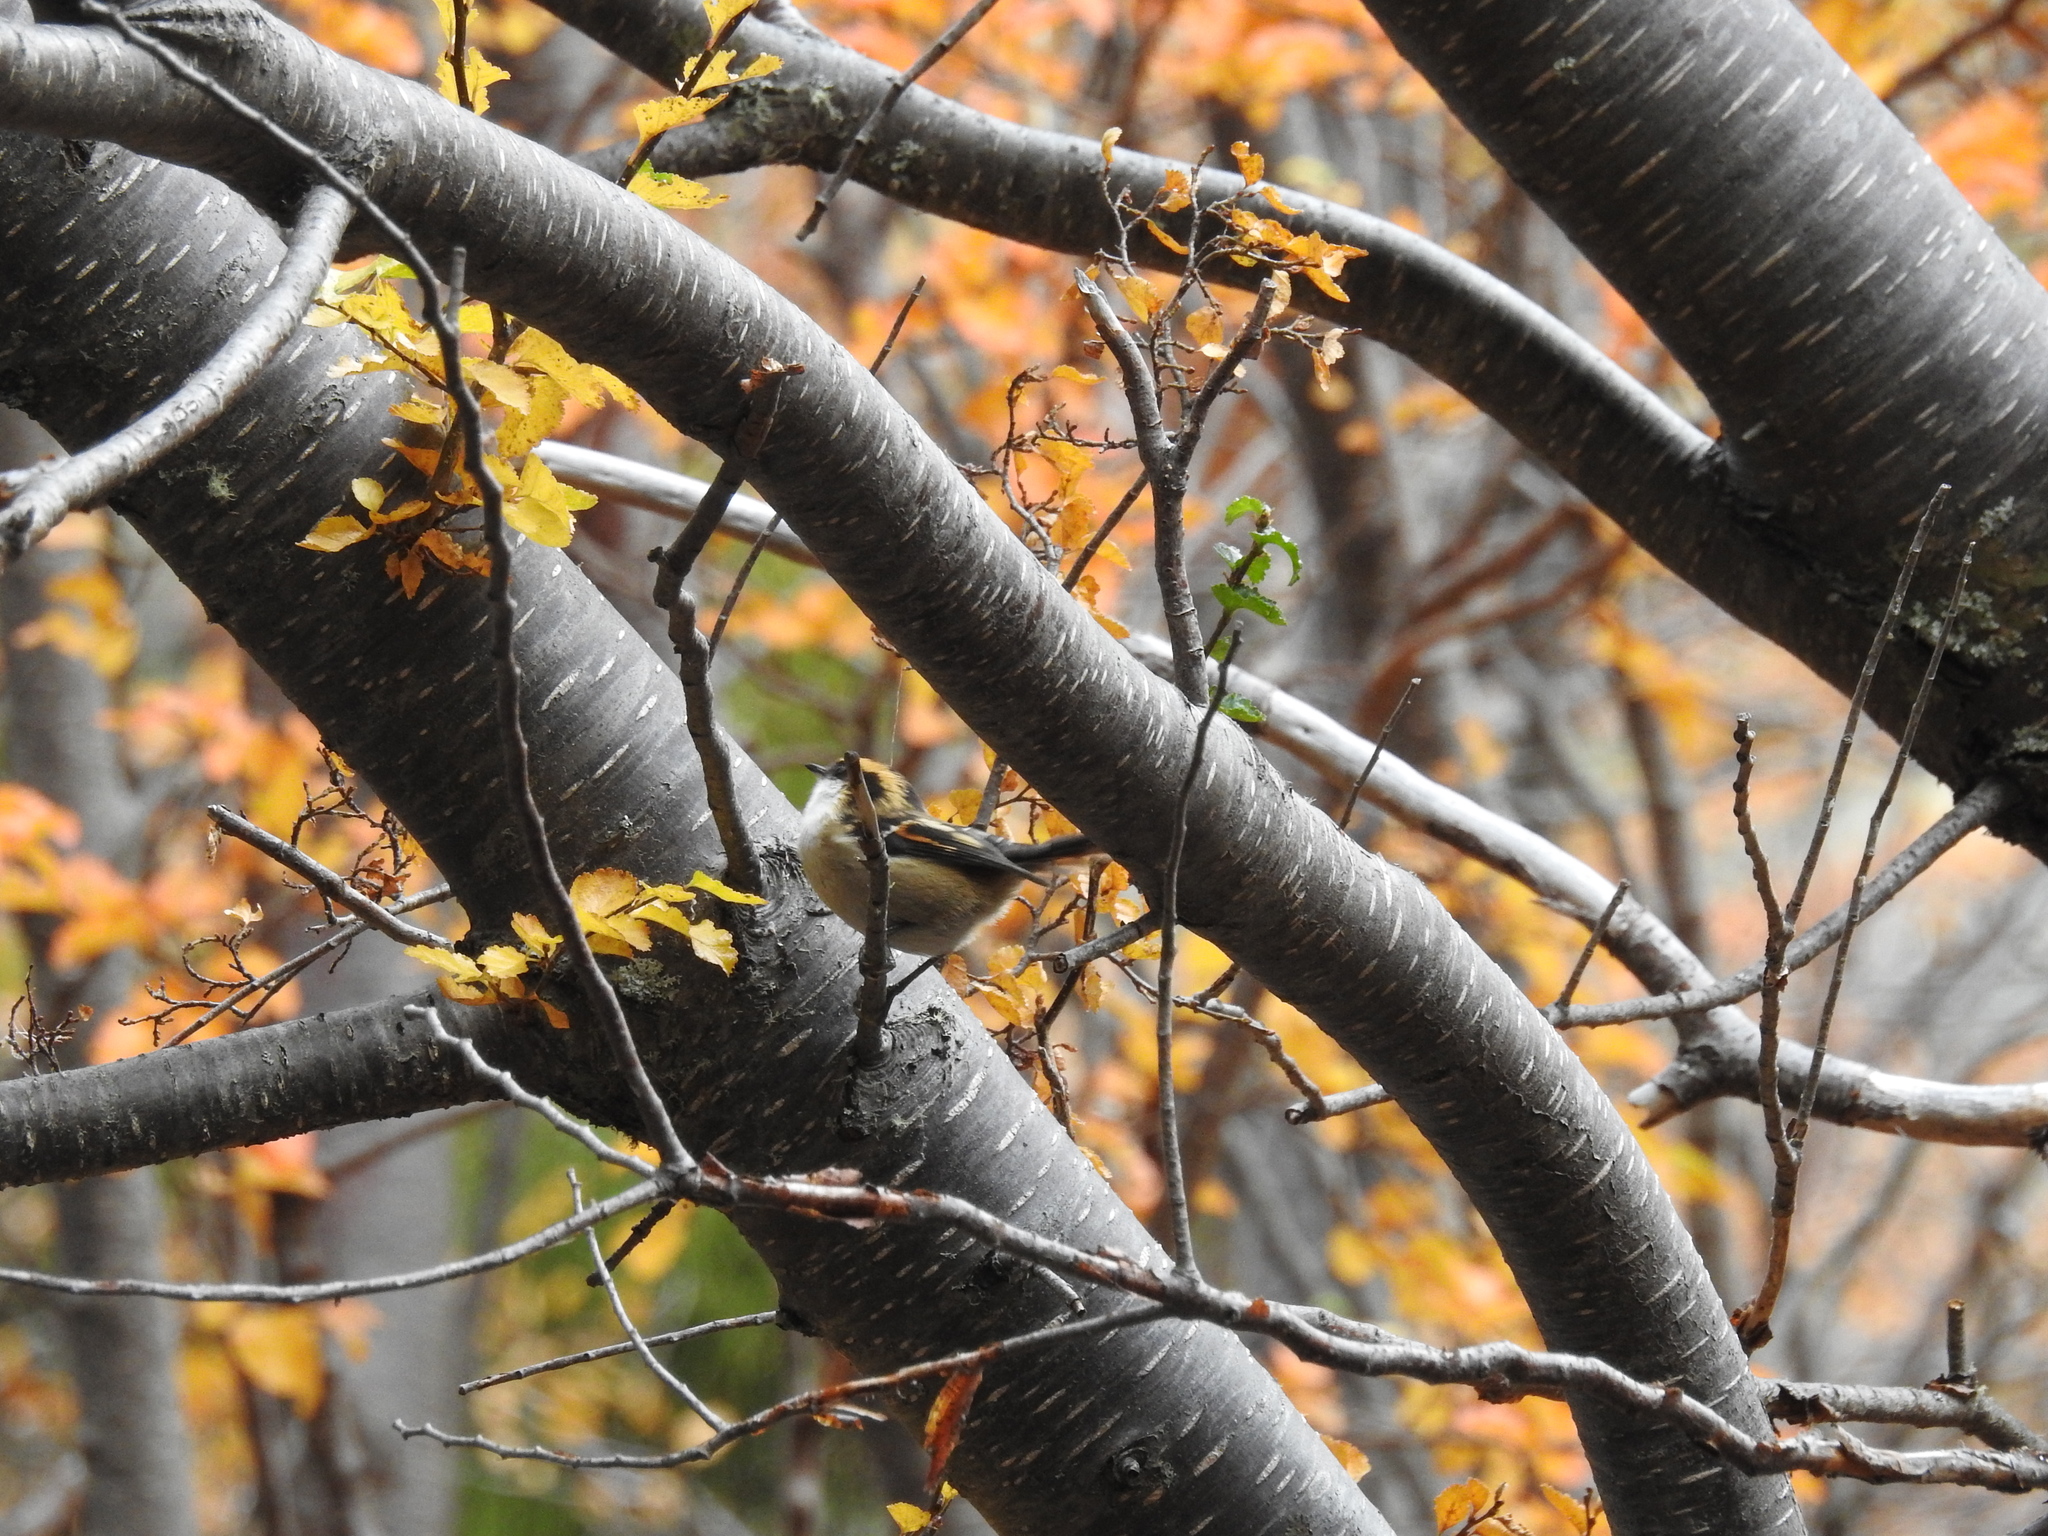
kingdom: Animalia
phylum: Chordata
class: Aves
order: Passeriformes
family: Furnariidae
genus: Aphrastura
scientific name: Aphrastura spinicauda
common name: Thorn-tailed rayadito
